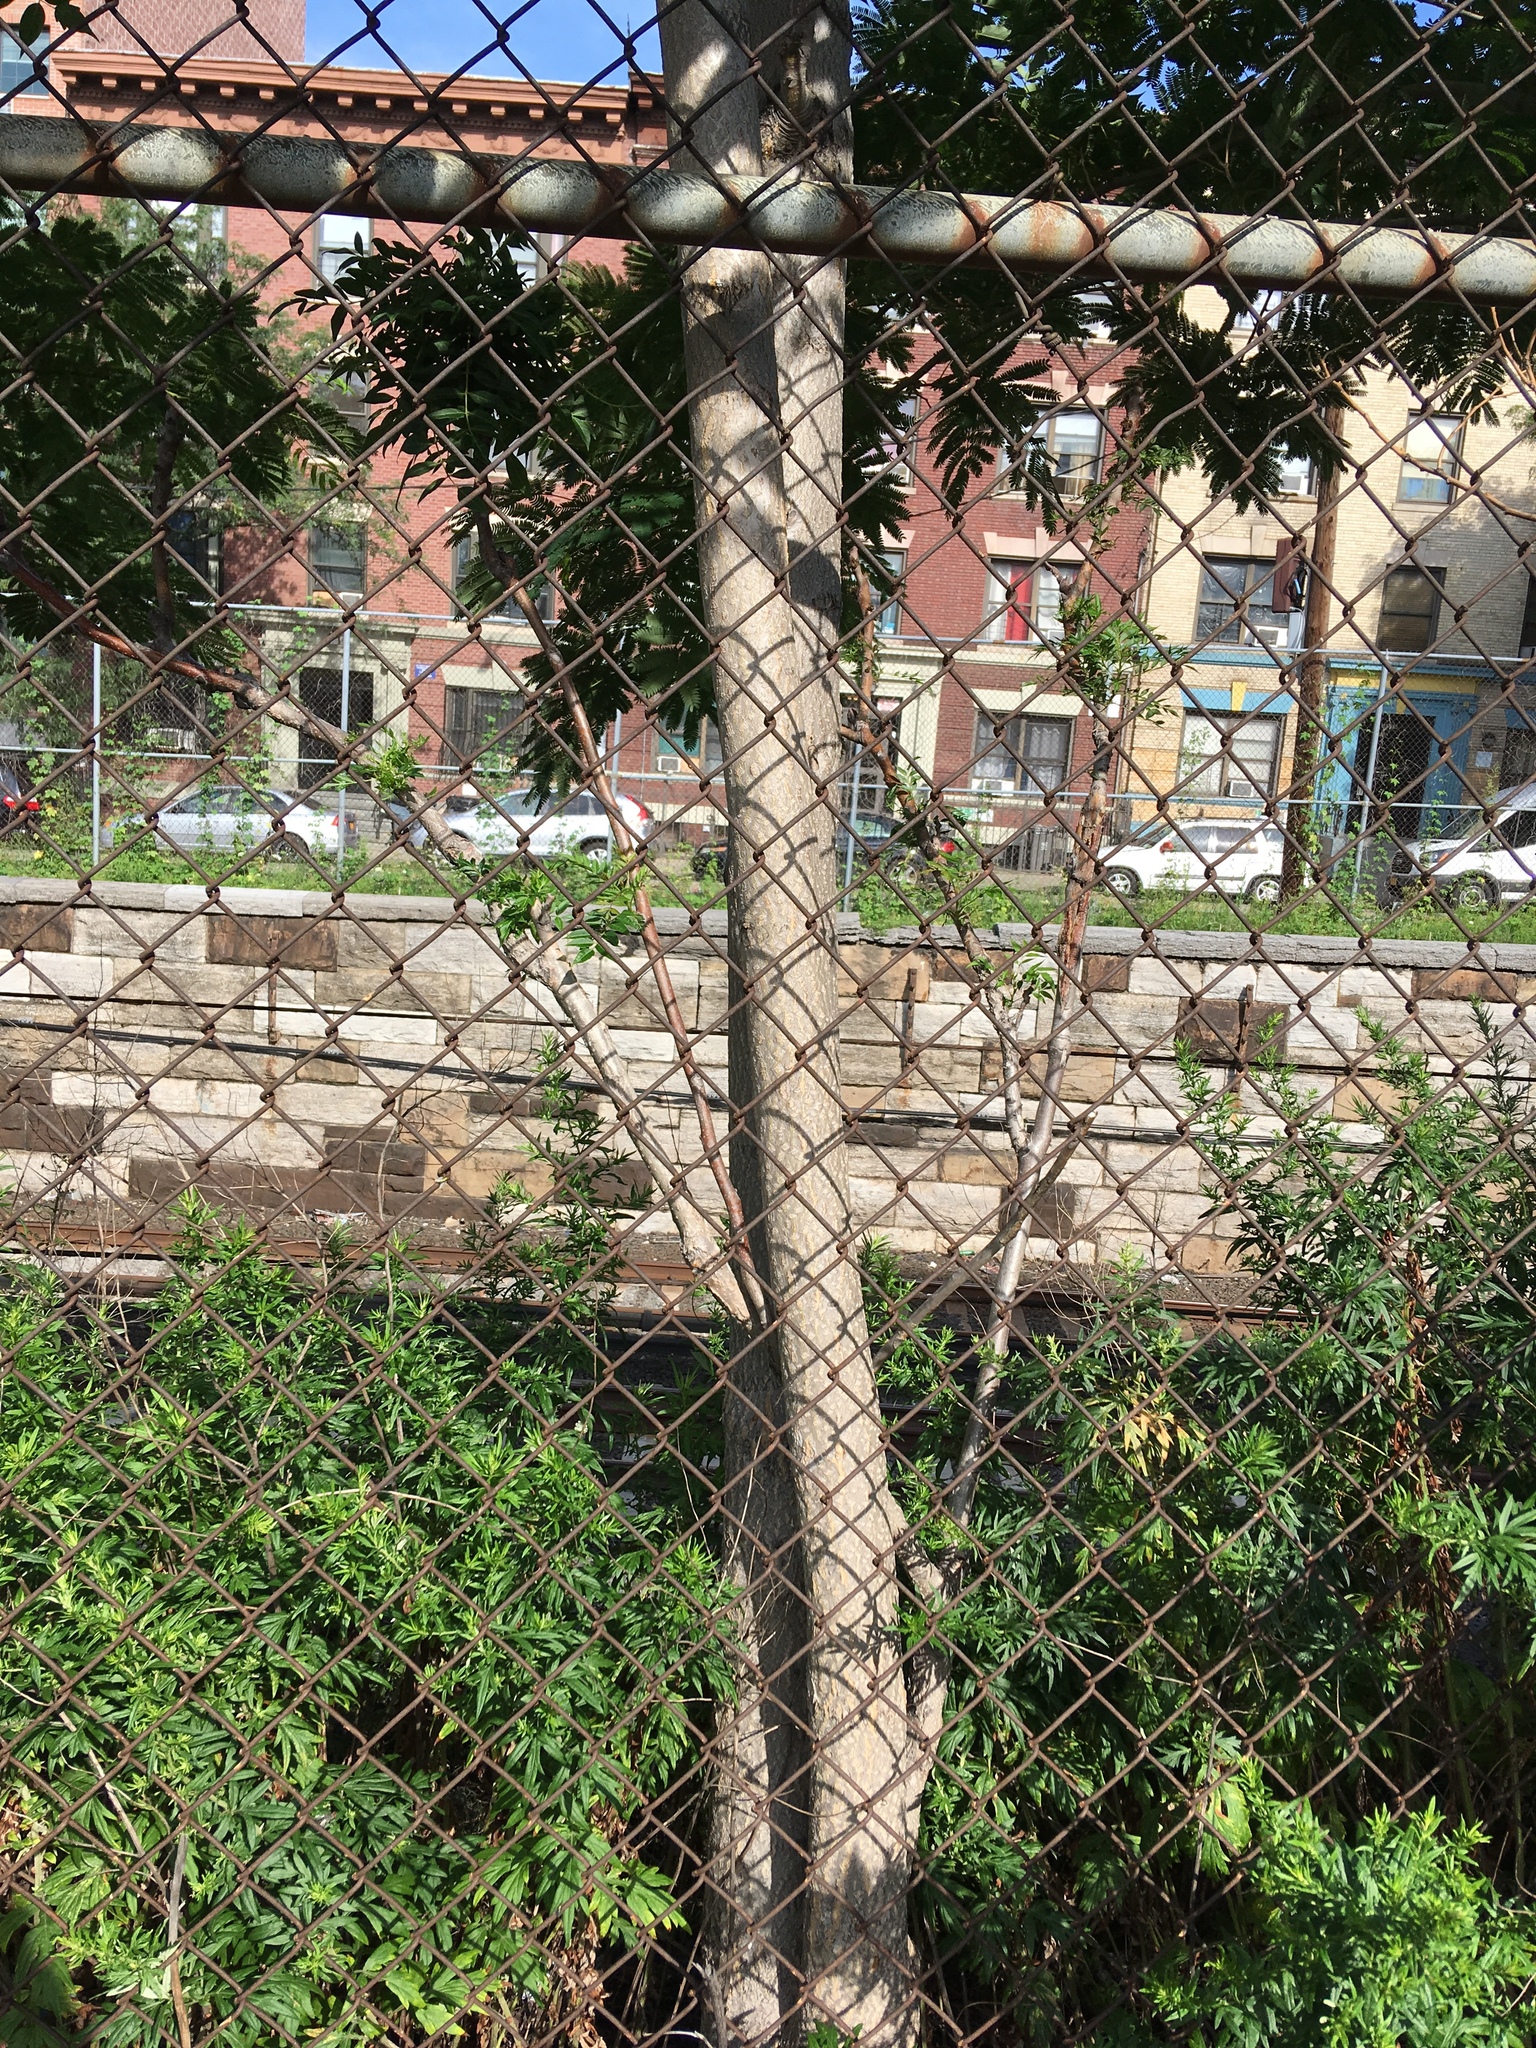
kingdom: Plantae
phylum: Tracheophyta
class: Magnoliopsida
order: Sapindales
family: Simaroubaceae
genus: Ailanthus
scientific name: Ailanthus altissima
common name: Tree-of-heaven
